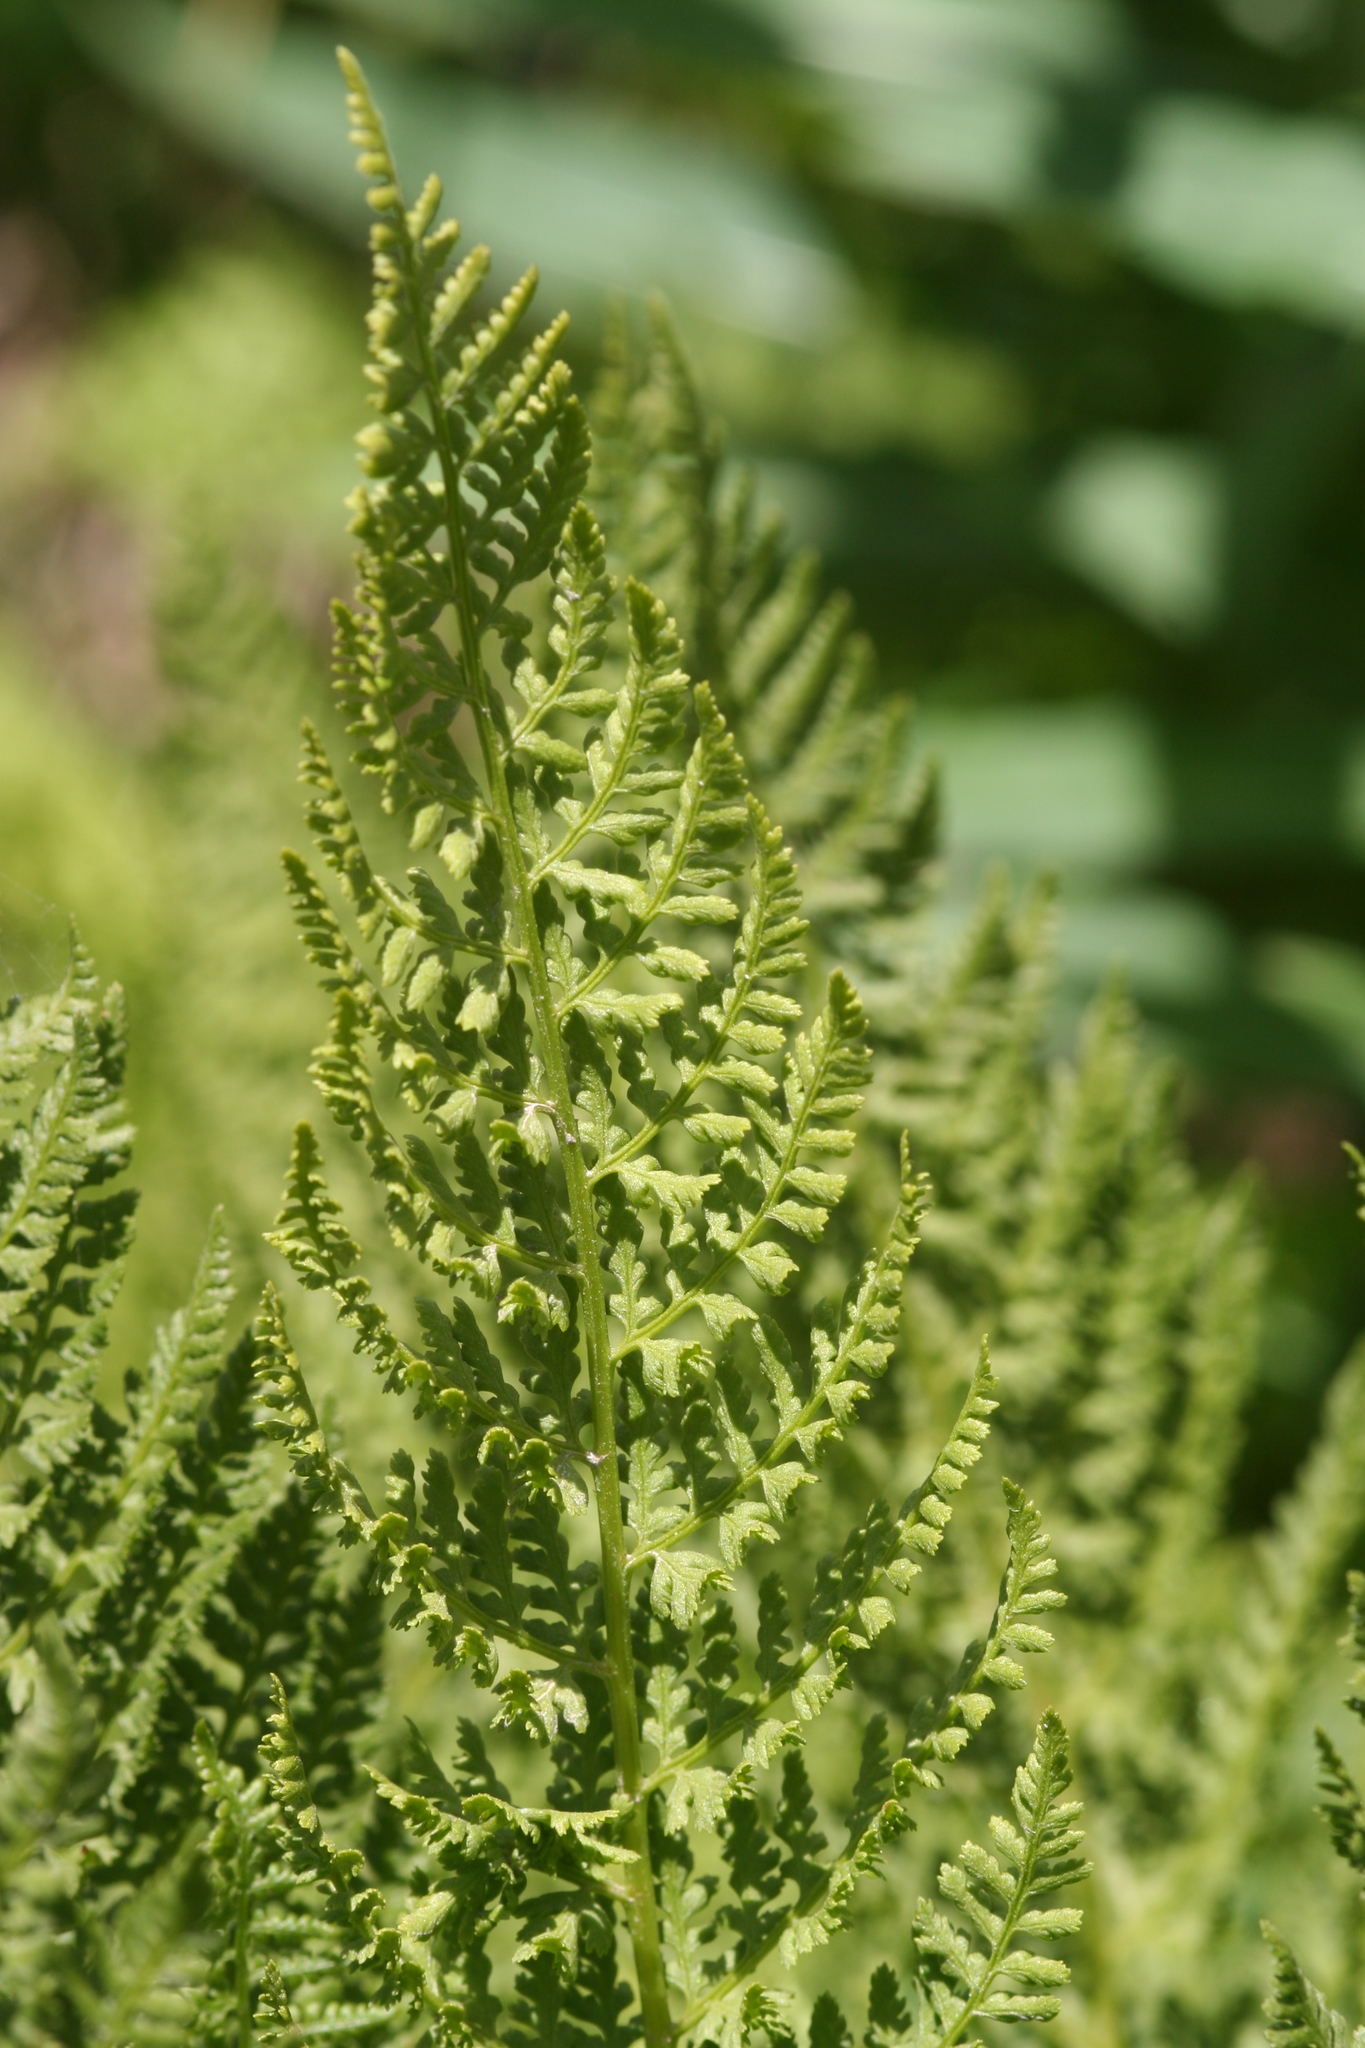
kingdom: Plantae
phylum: Tracheophyta
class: Polypodiopsida
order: Polypodiales
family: Athyriaceae
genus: Athyrium
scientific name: Athyrium americanum
